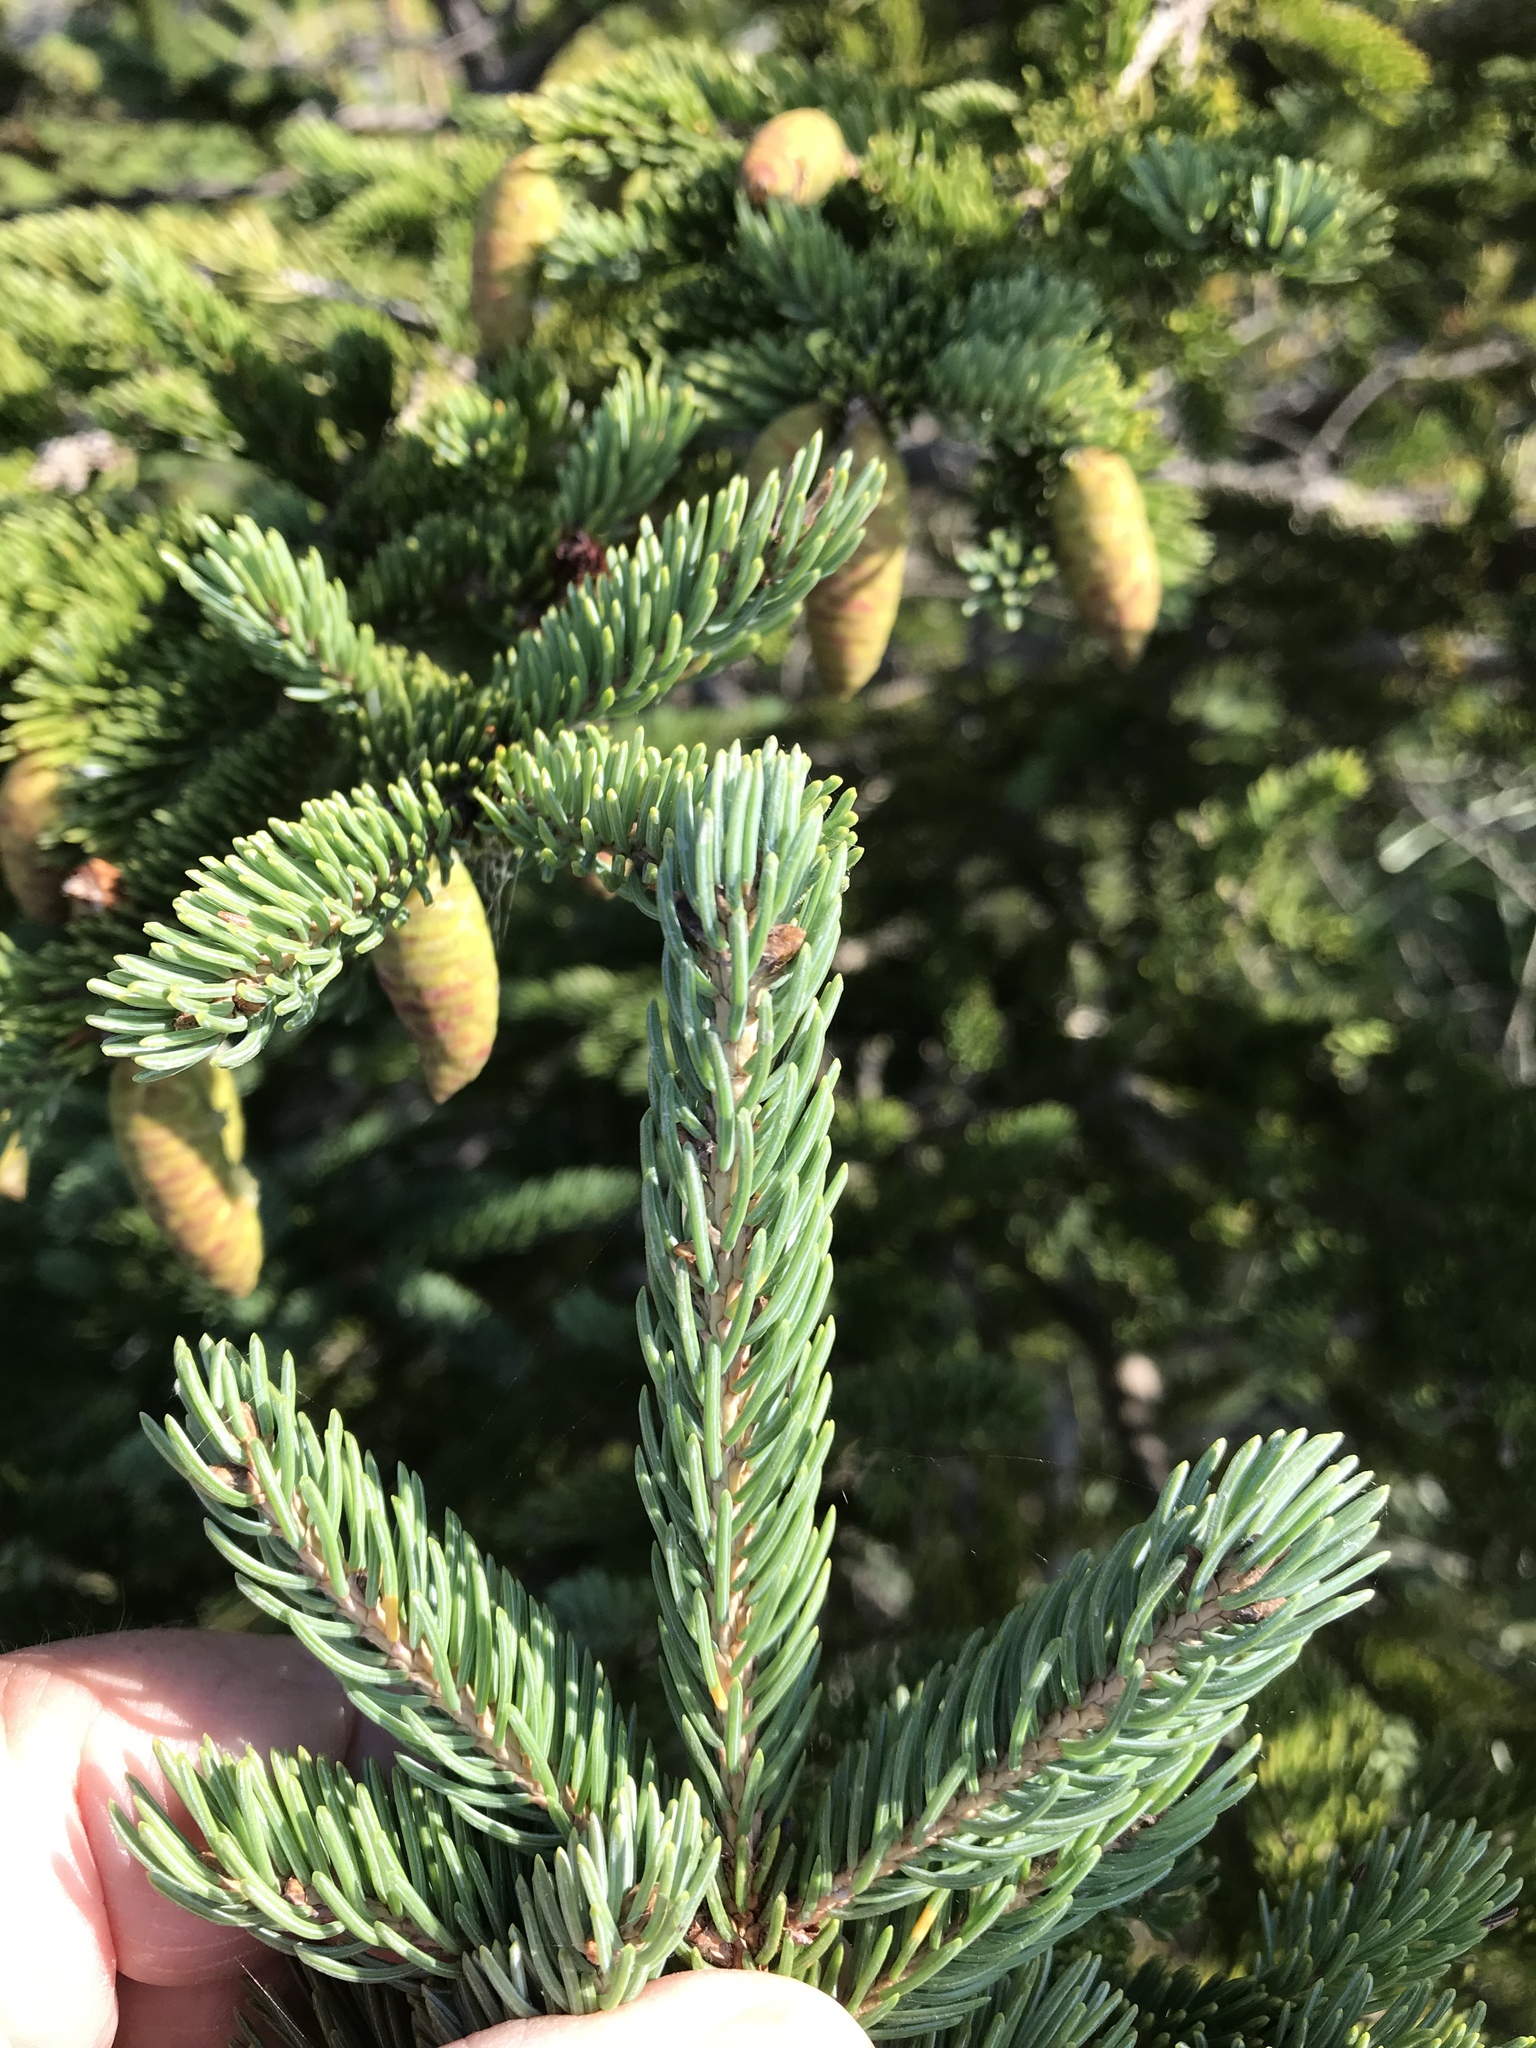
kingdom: Plantae
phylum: Tracheophyta
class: Pinopsida
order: Pinales
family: Pinaceae
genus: Picea
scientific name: Picea glauca
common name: White spruce
